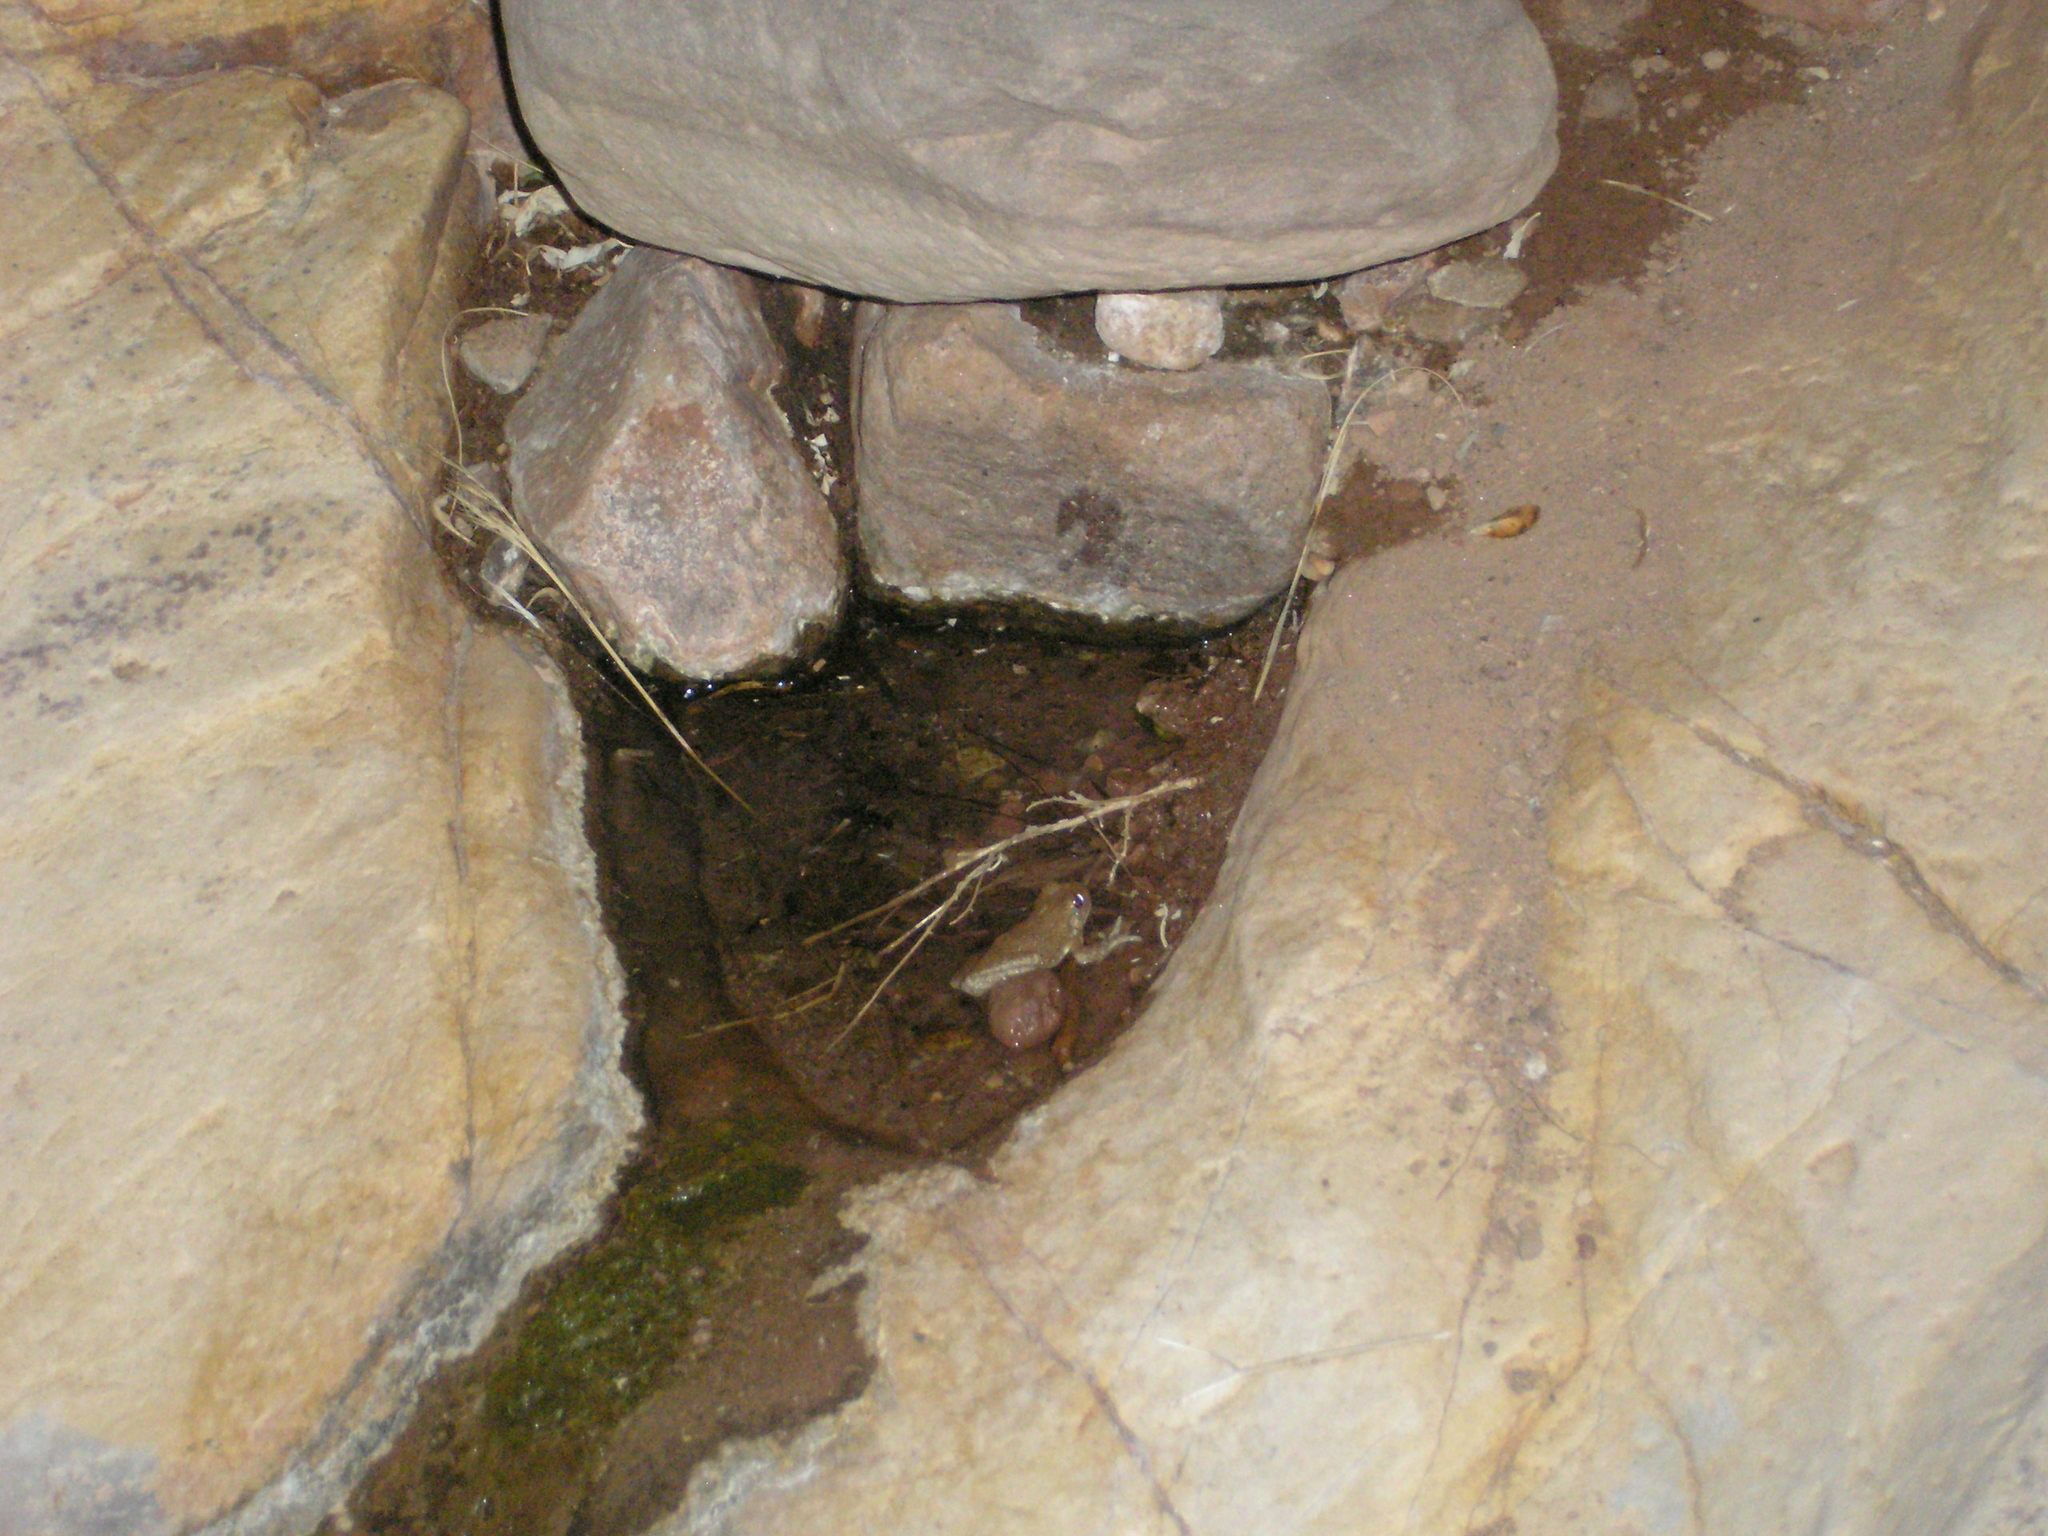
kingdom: Animalia
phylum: Chordata
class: Amphibia
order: Anura
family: Hylidae
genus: Dryophytes
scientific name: Dryophytes arenicolor
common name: Canyon treefrog
